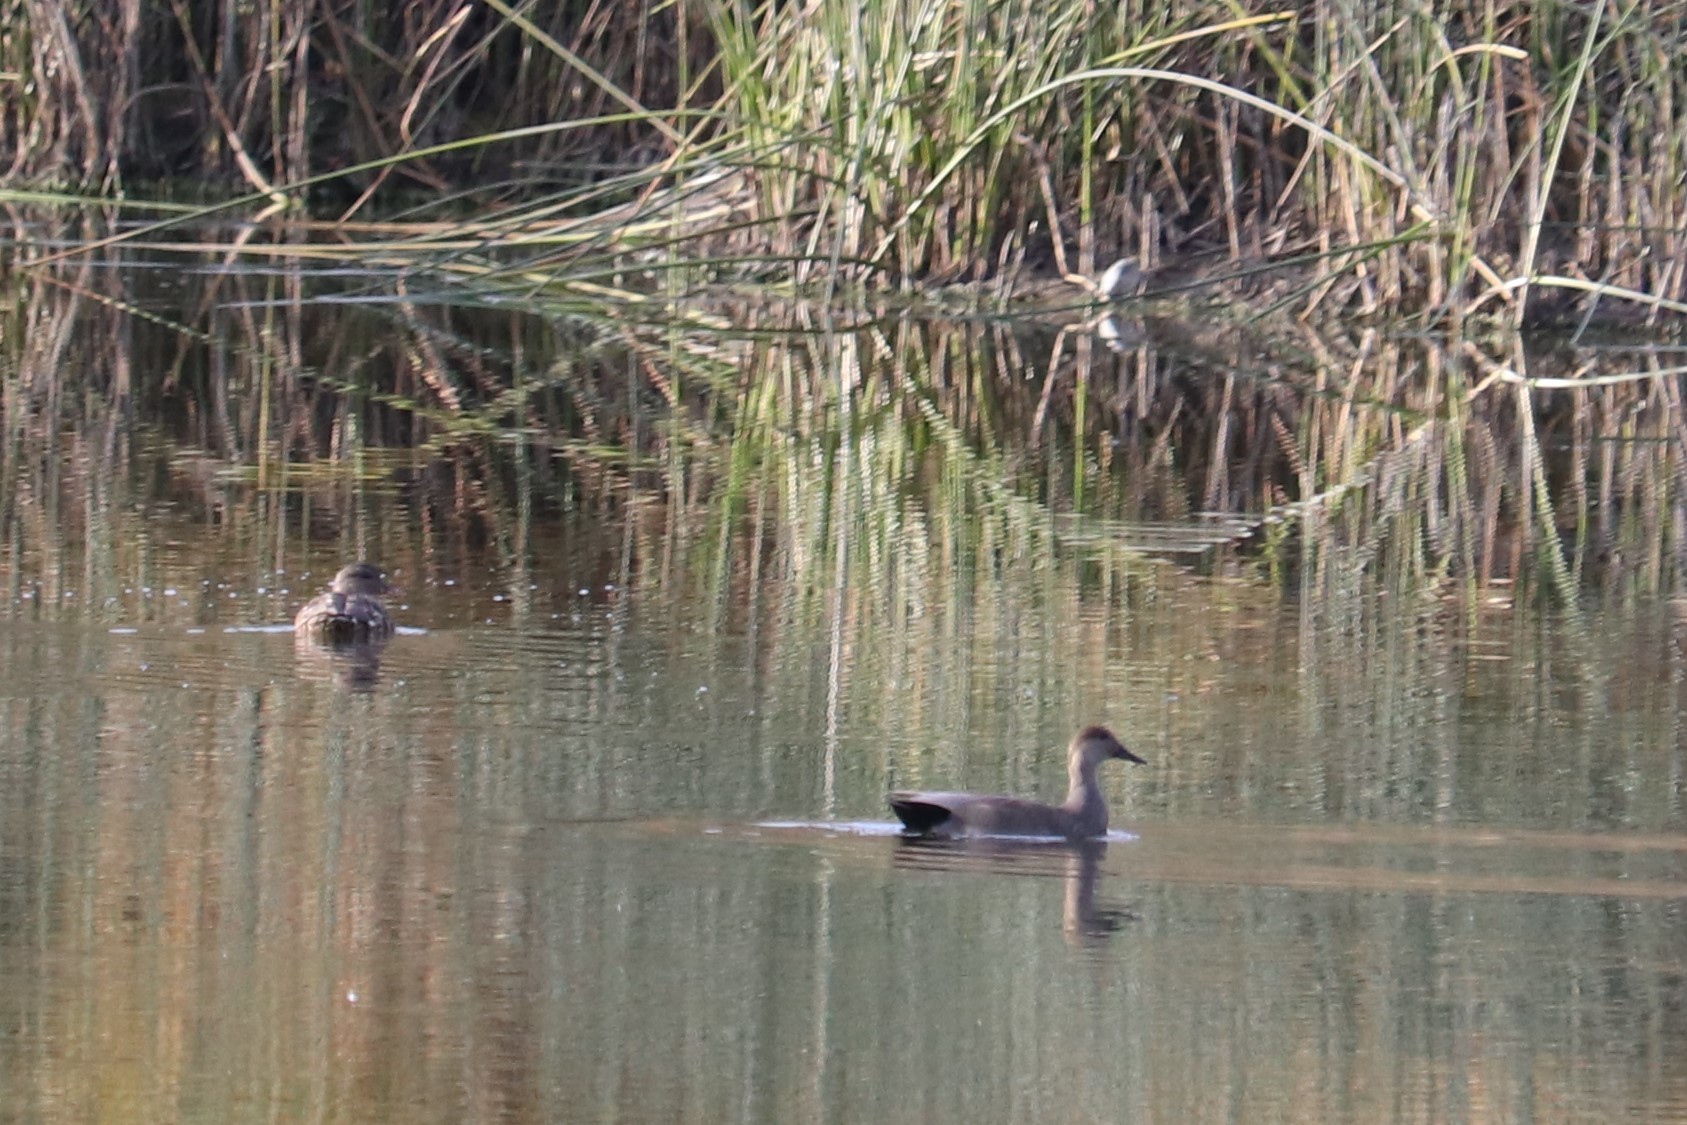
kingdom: Animalia
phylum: Chordata
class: Aves
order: Anseriformes
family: Anatidae
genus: Mareca
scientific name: Mareca strepera
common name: Gadwall
